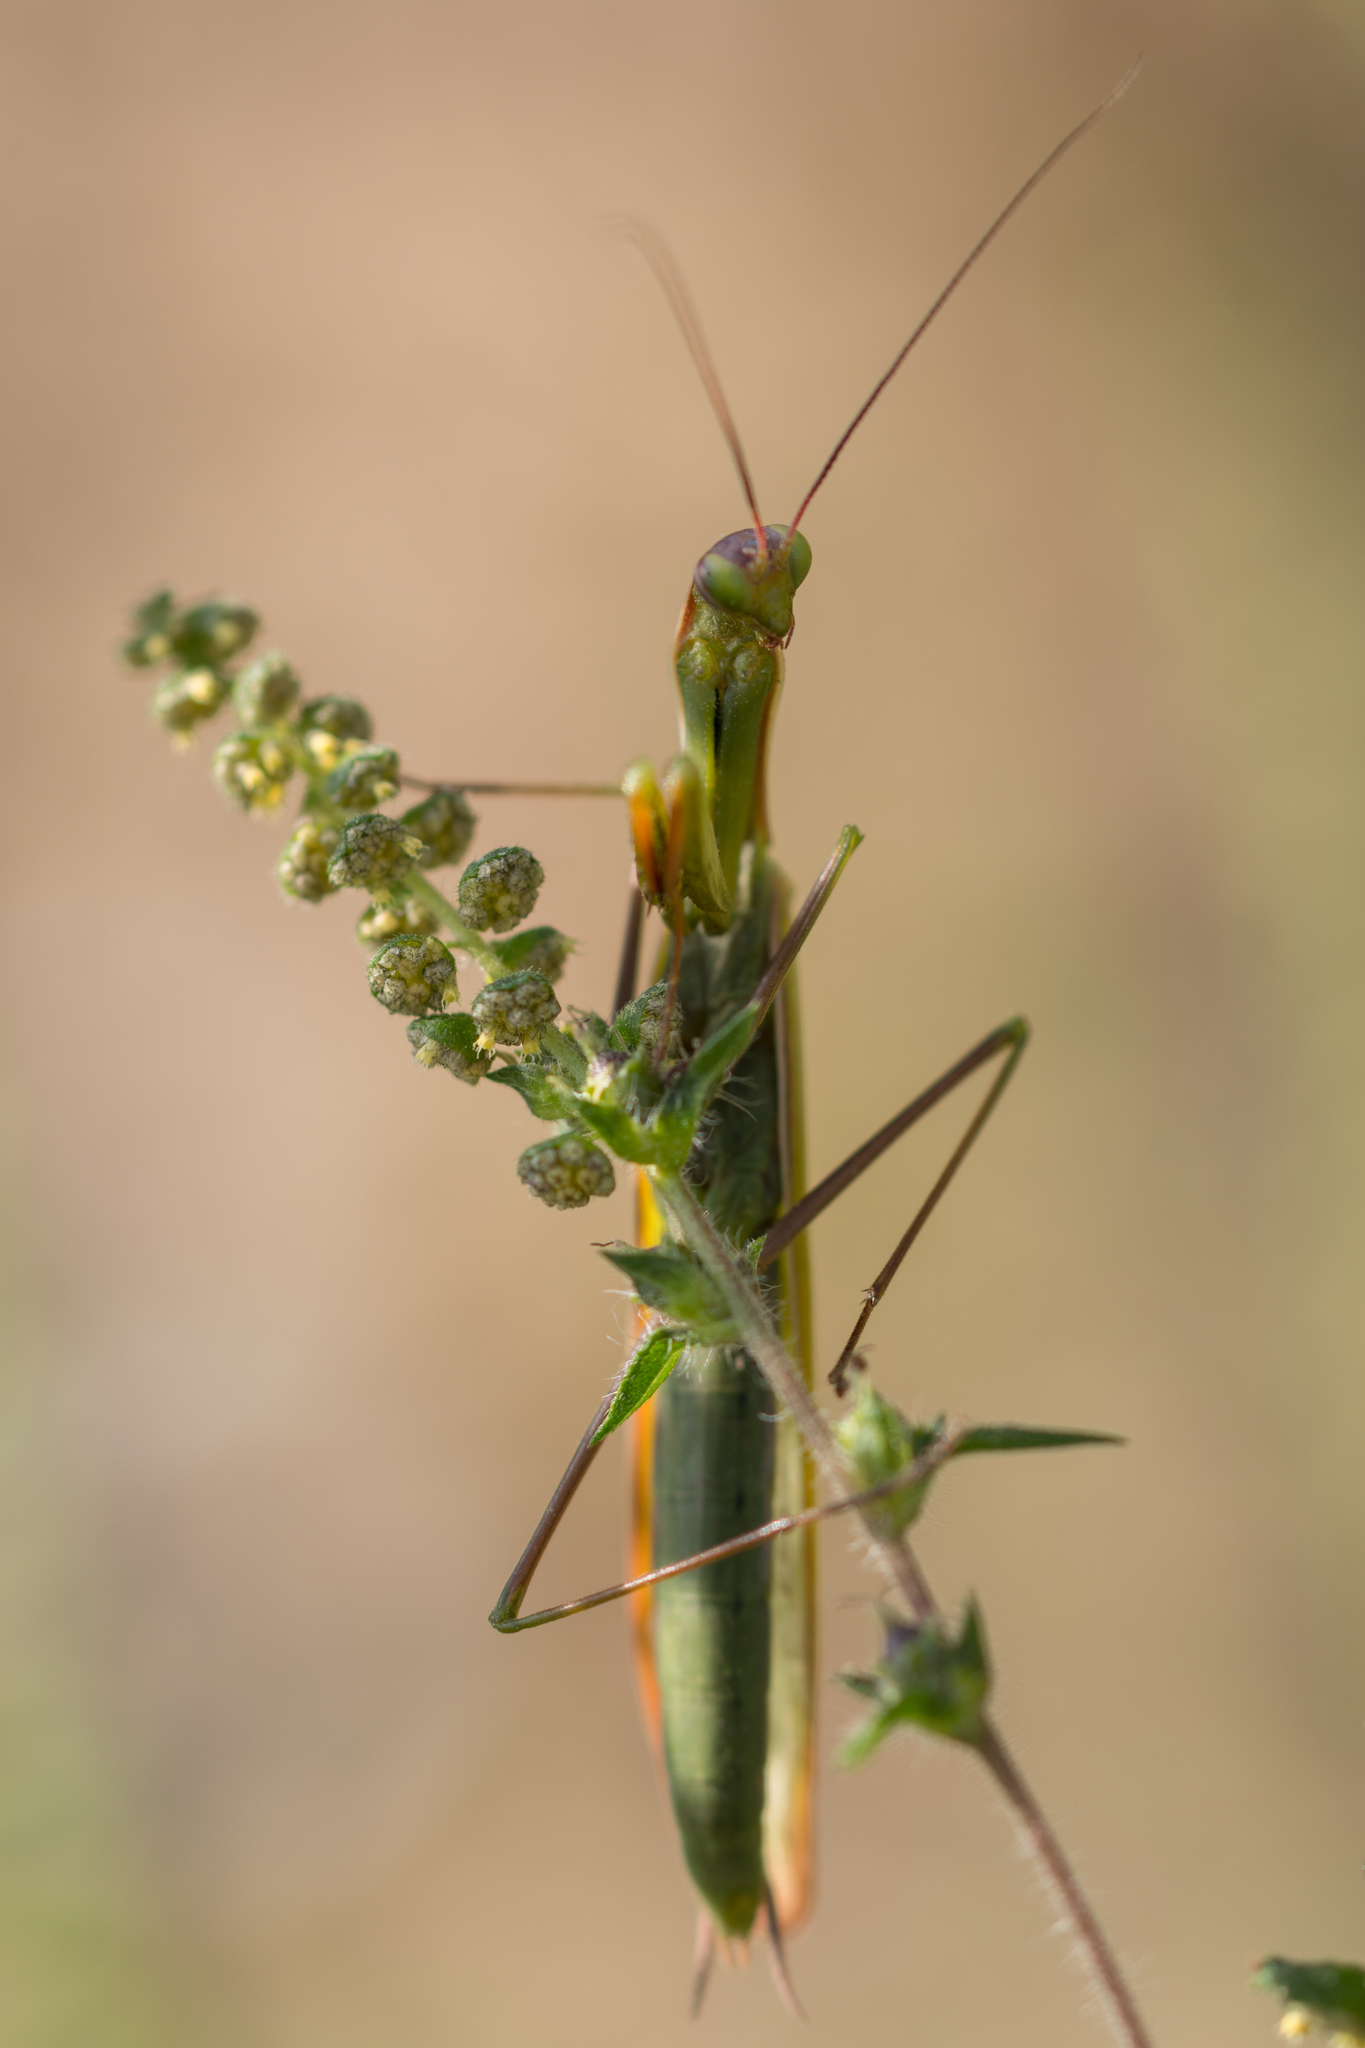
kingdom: Animalia
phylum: Arthropoda
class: Insecta
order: Mantodea
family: Mantidae
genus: Mantis
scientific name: Mantis religiosa
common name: Praying mantis
